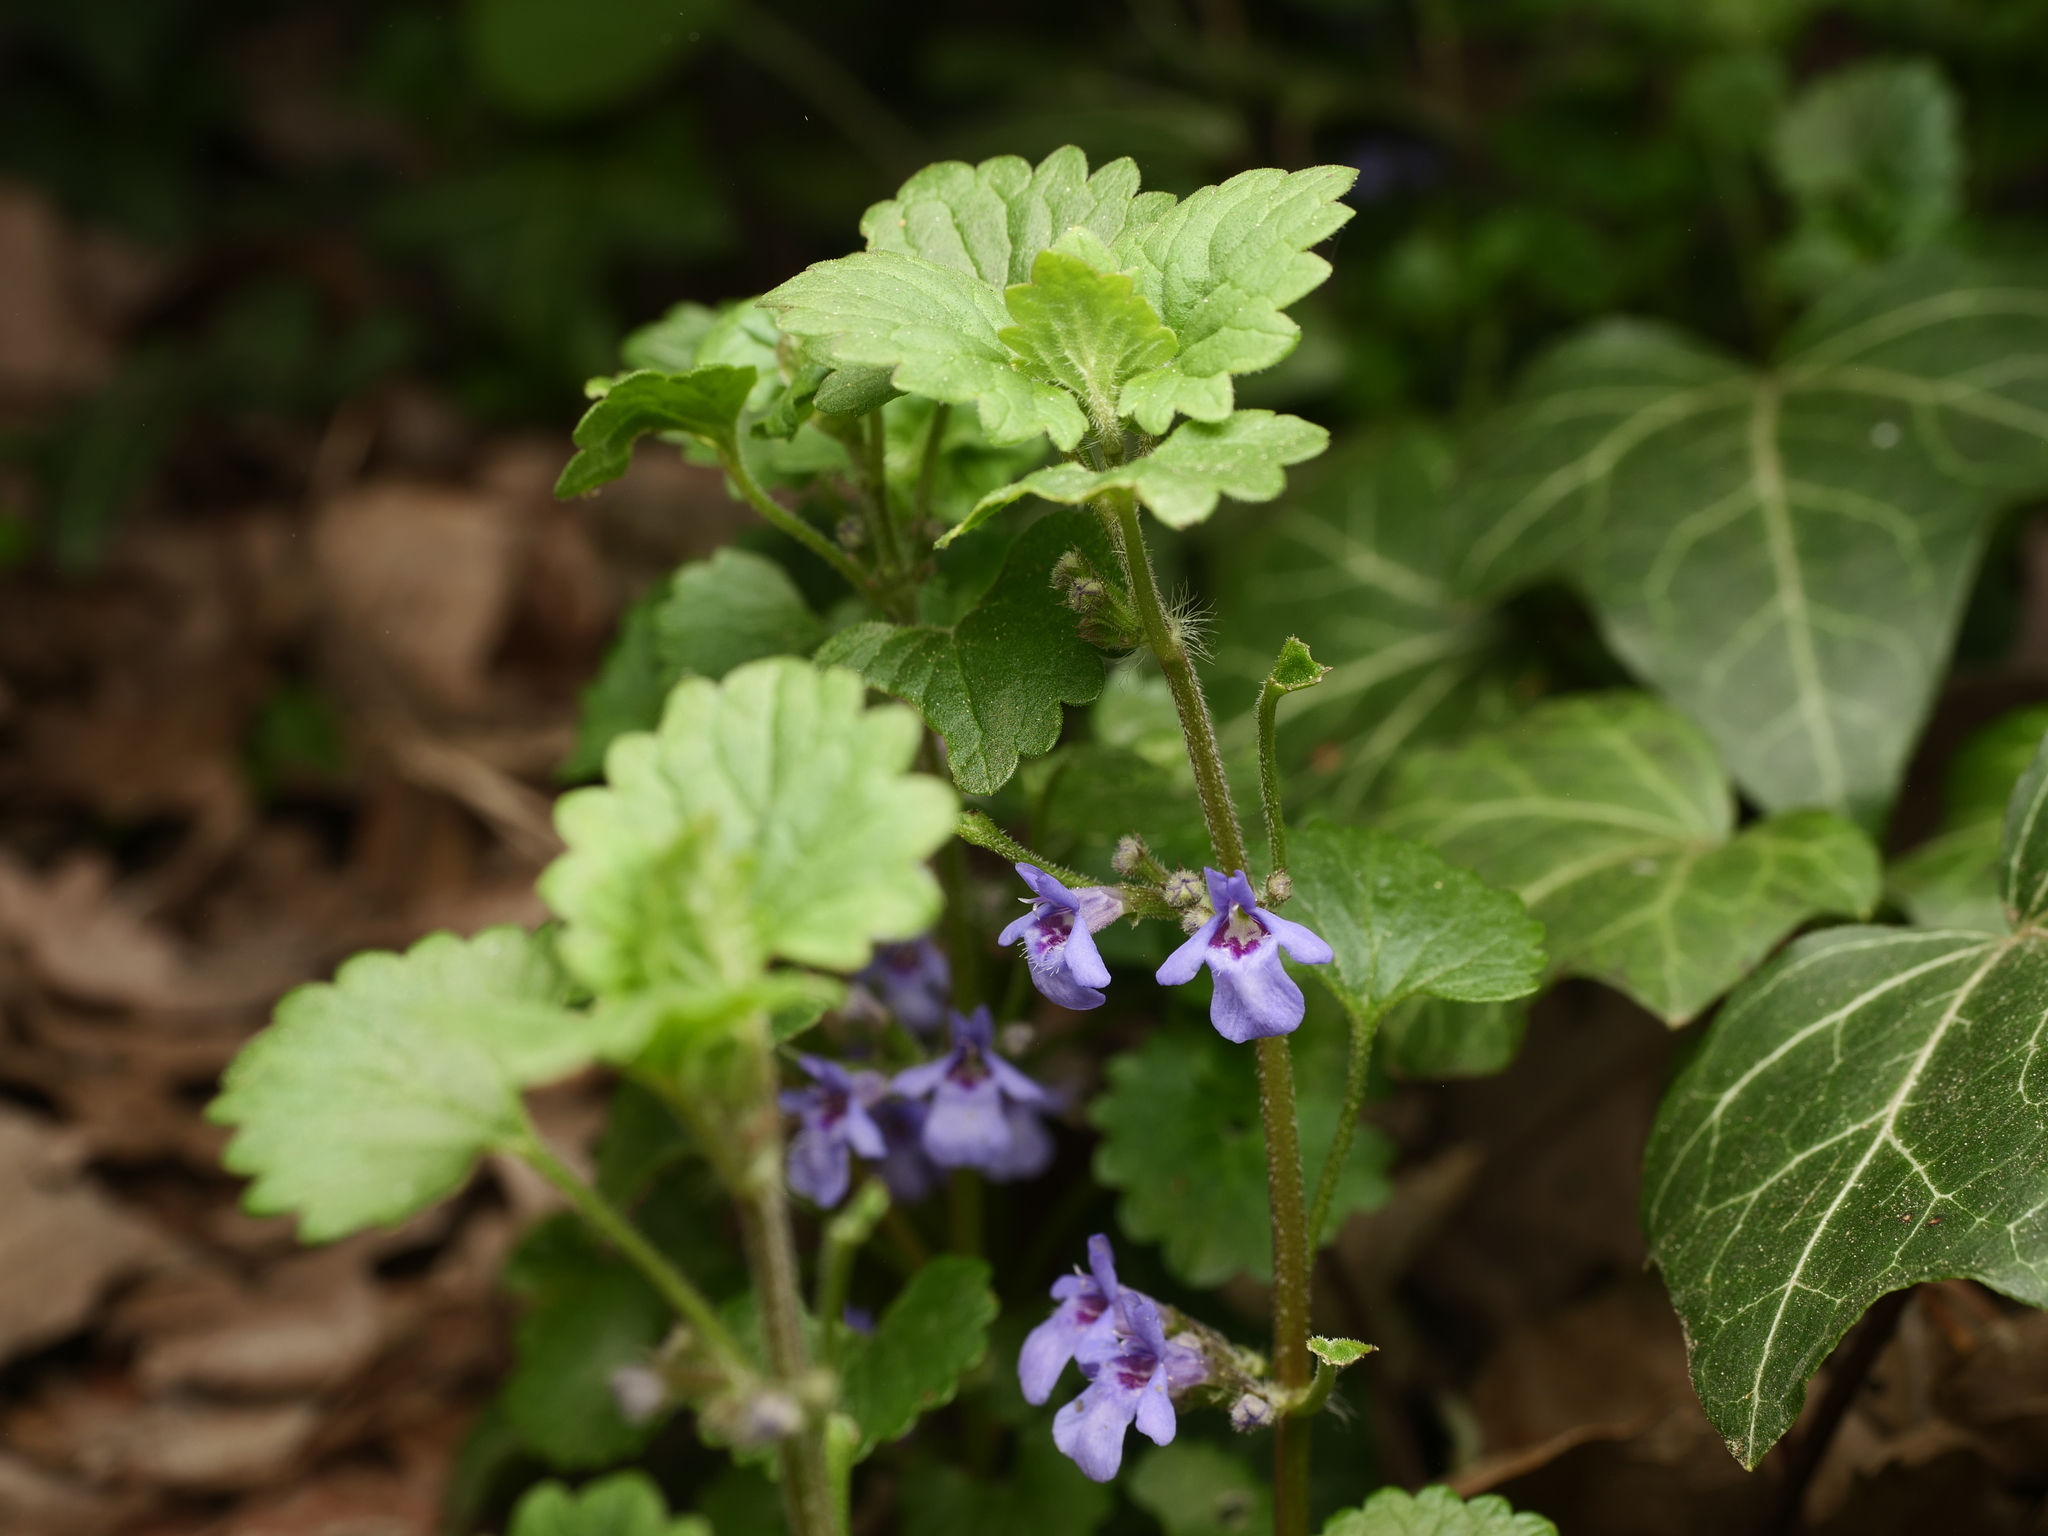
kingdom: Plantae
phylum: Tracheophyta
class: Magnoliopsida
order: Lamiales
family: Lamiaceae
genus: Glechoma
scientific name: Glechoma hederacea
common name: Ground ivy
